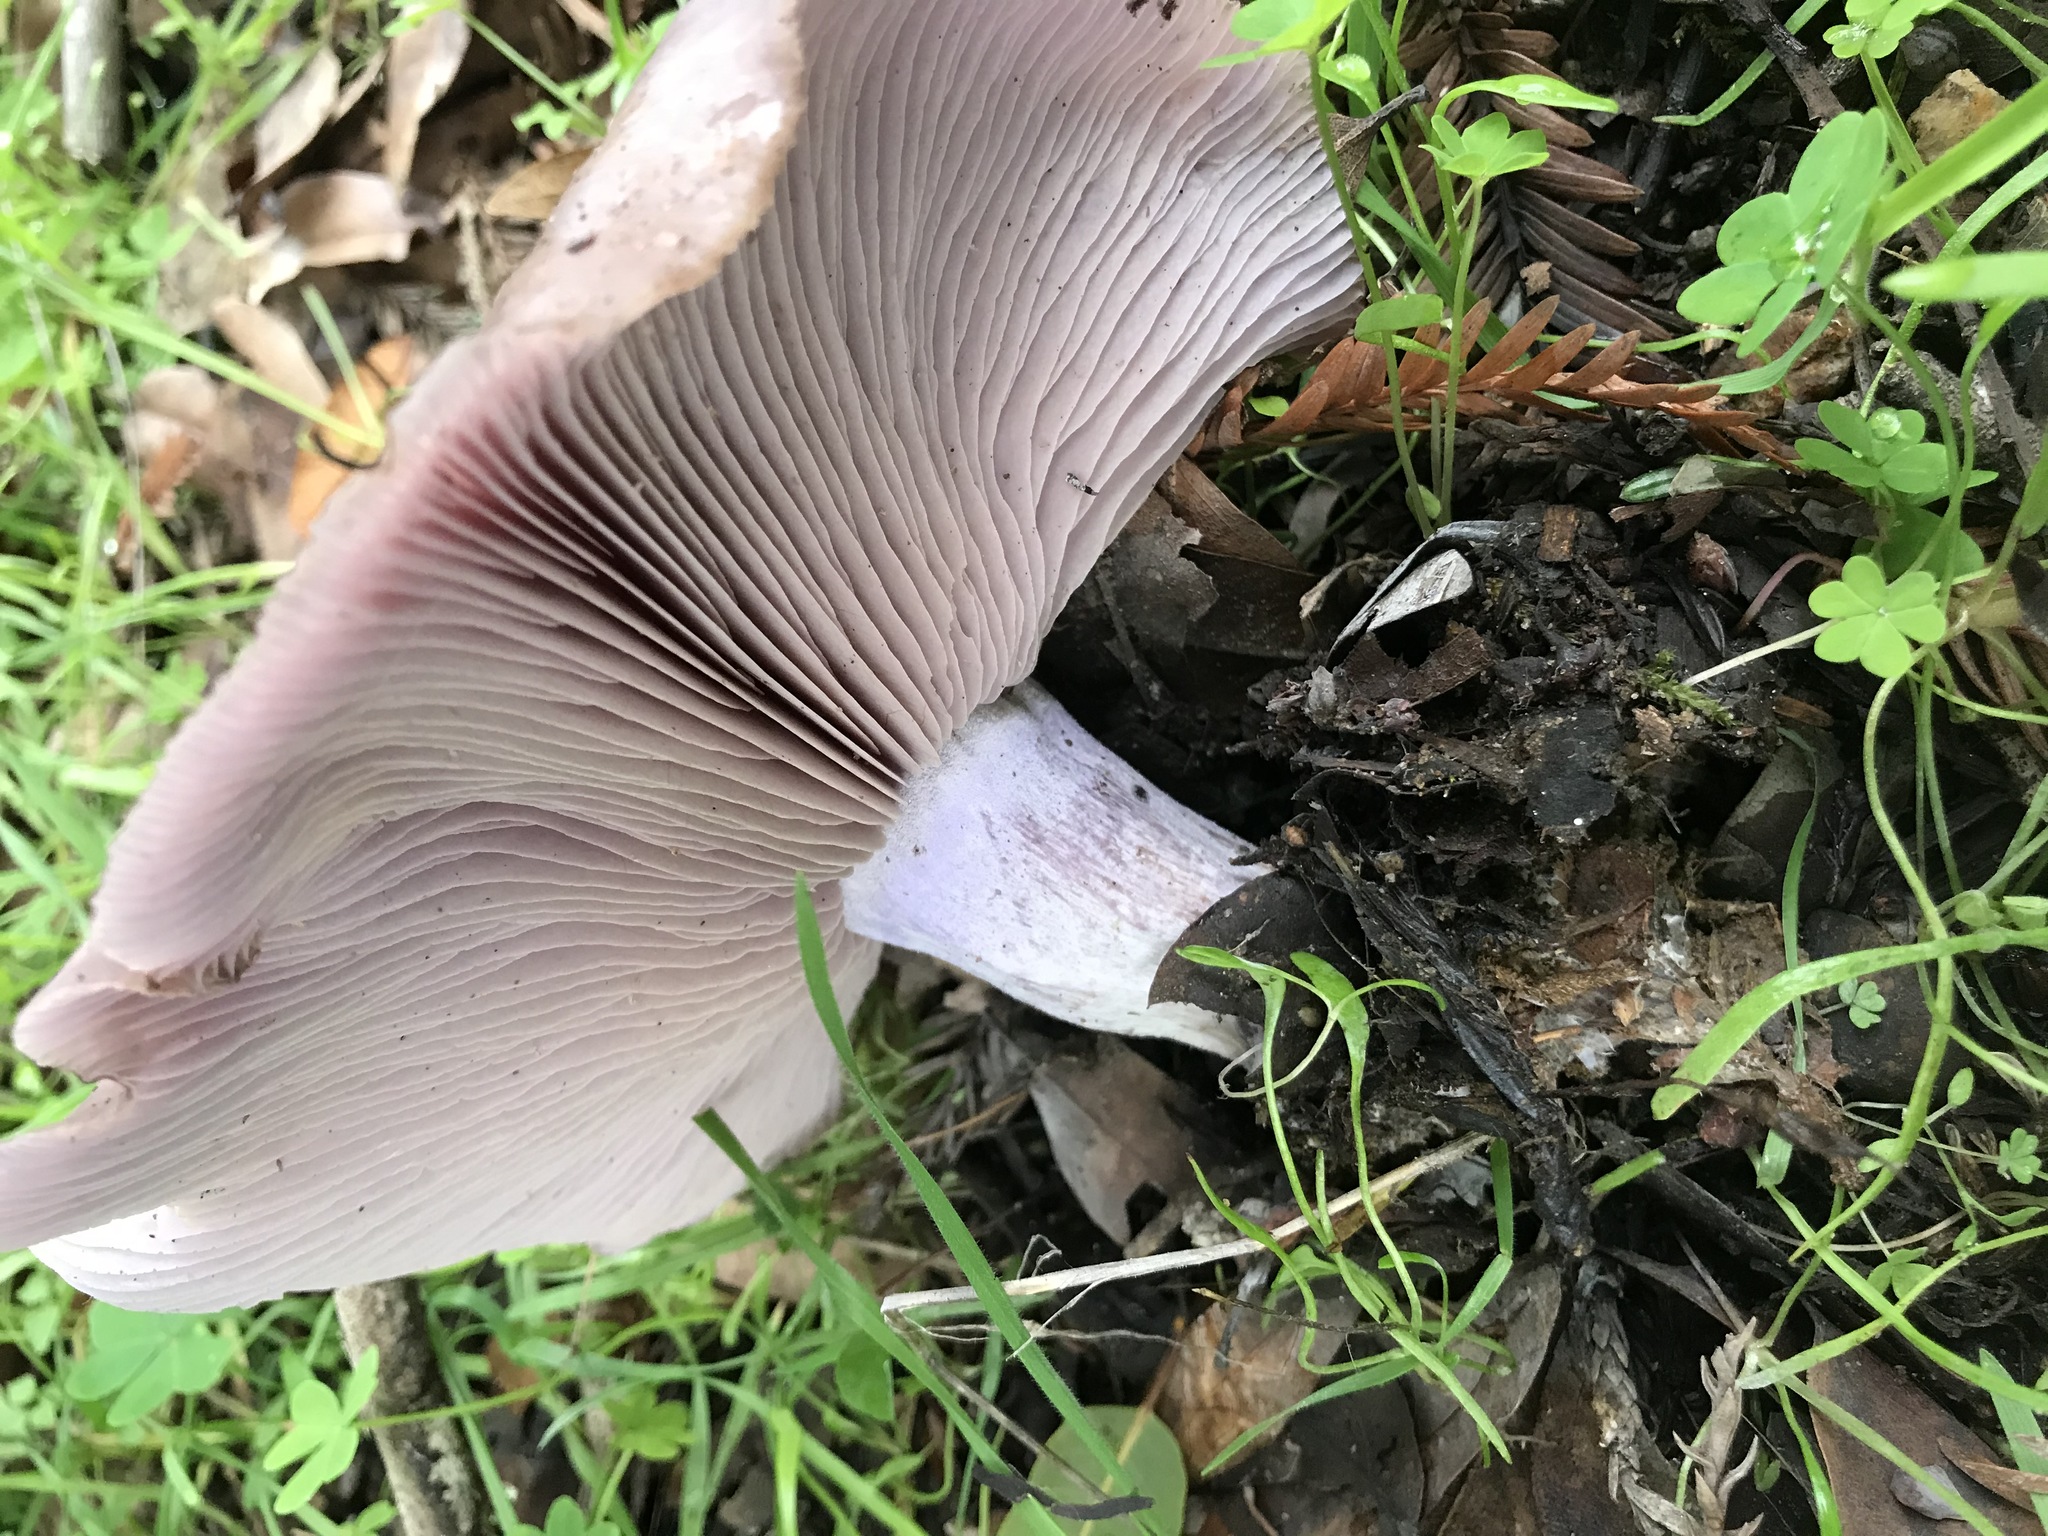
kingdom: Fungi
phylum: Basidiomycota
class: Agaricomycetes
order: Agaricales
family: Tricholomataceae
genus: Collybia
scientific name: Collybia
